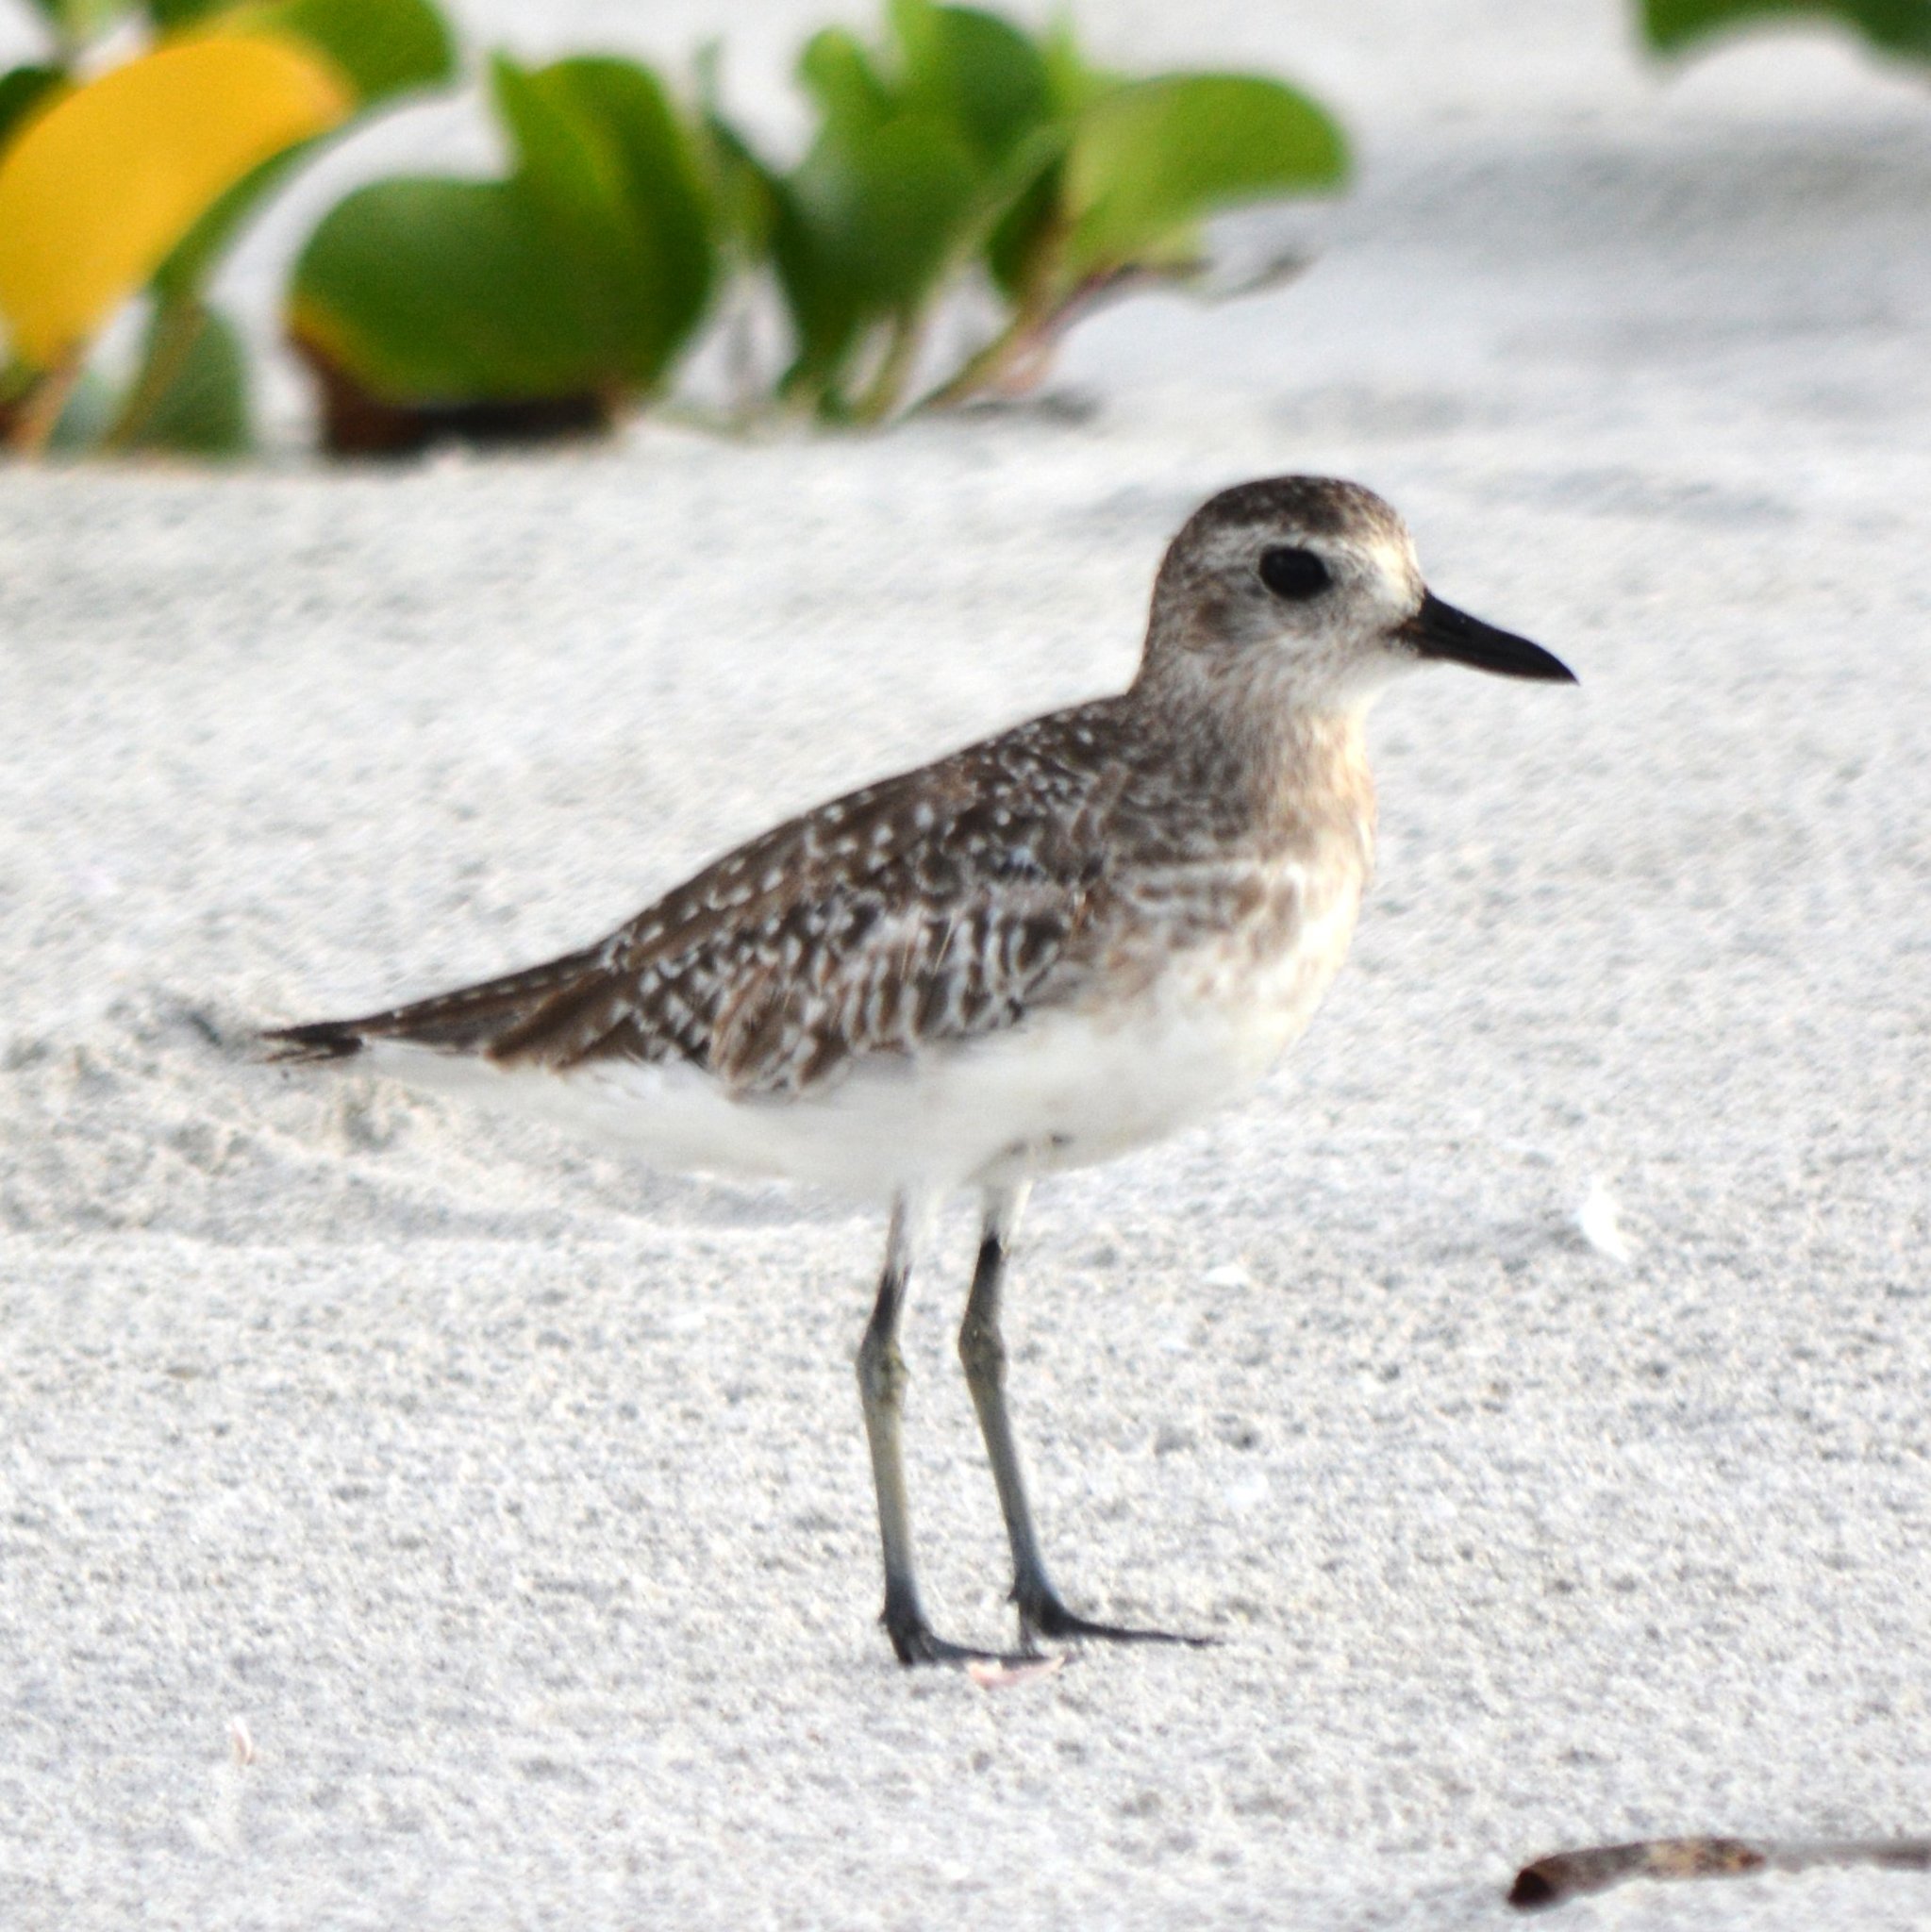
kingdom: Animalia
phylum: Chordata
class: Aves
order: Charadriiformes
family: Charadriidae
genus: Pluvialis
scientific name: Pluvialis squatarola
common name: Grey plover
